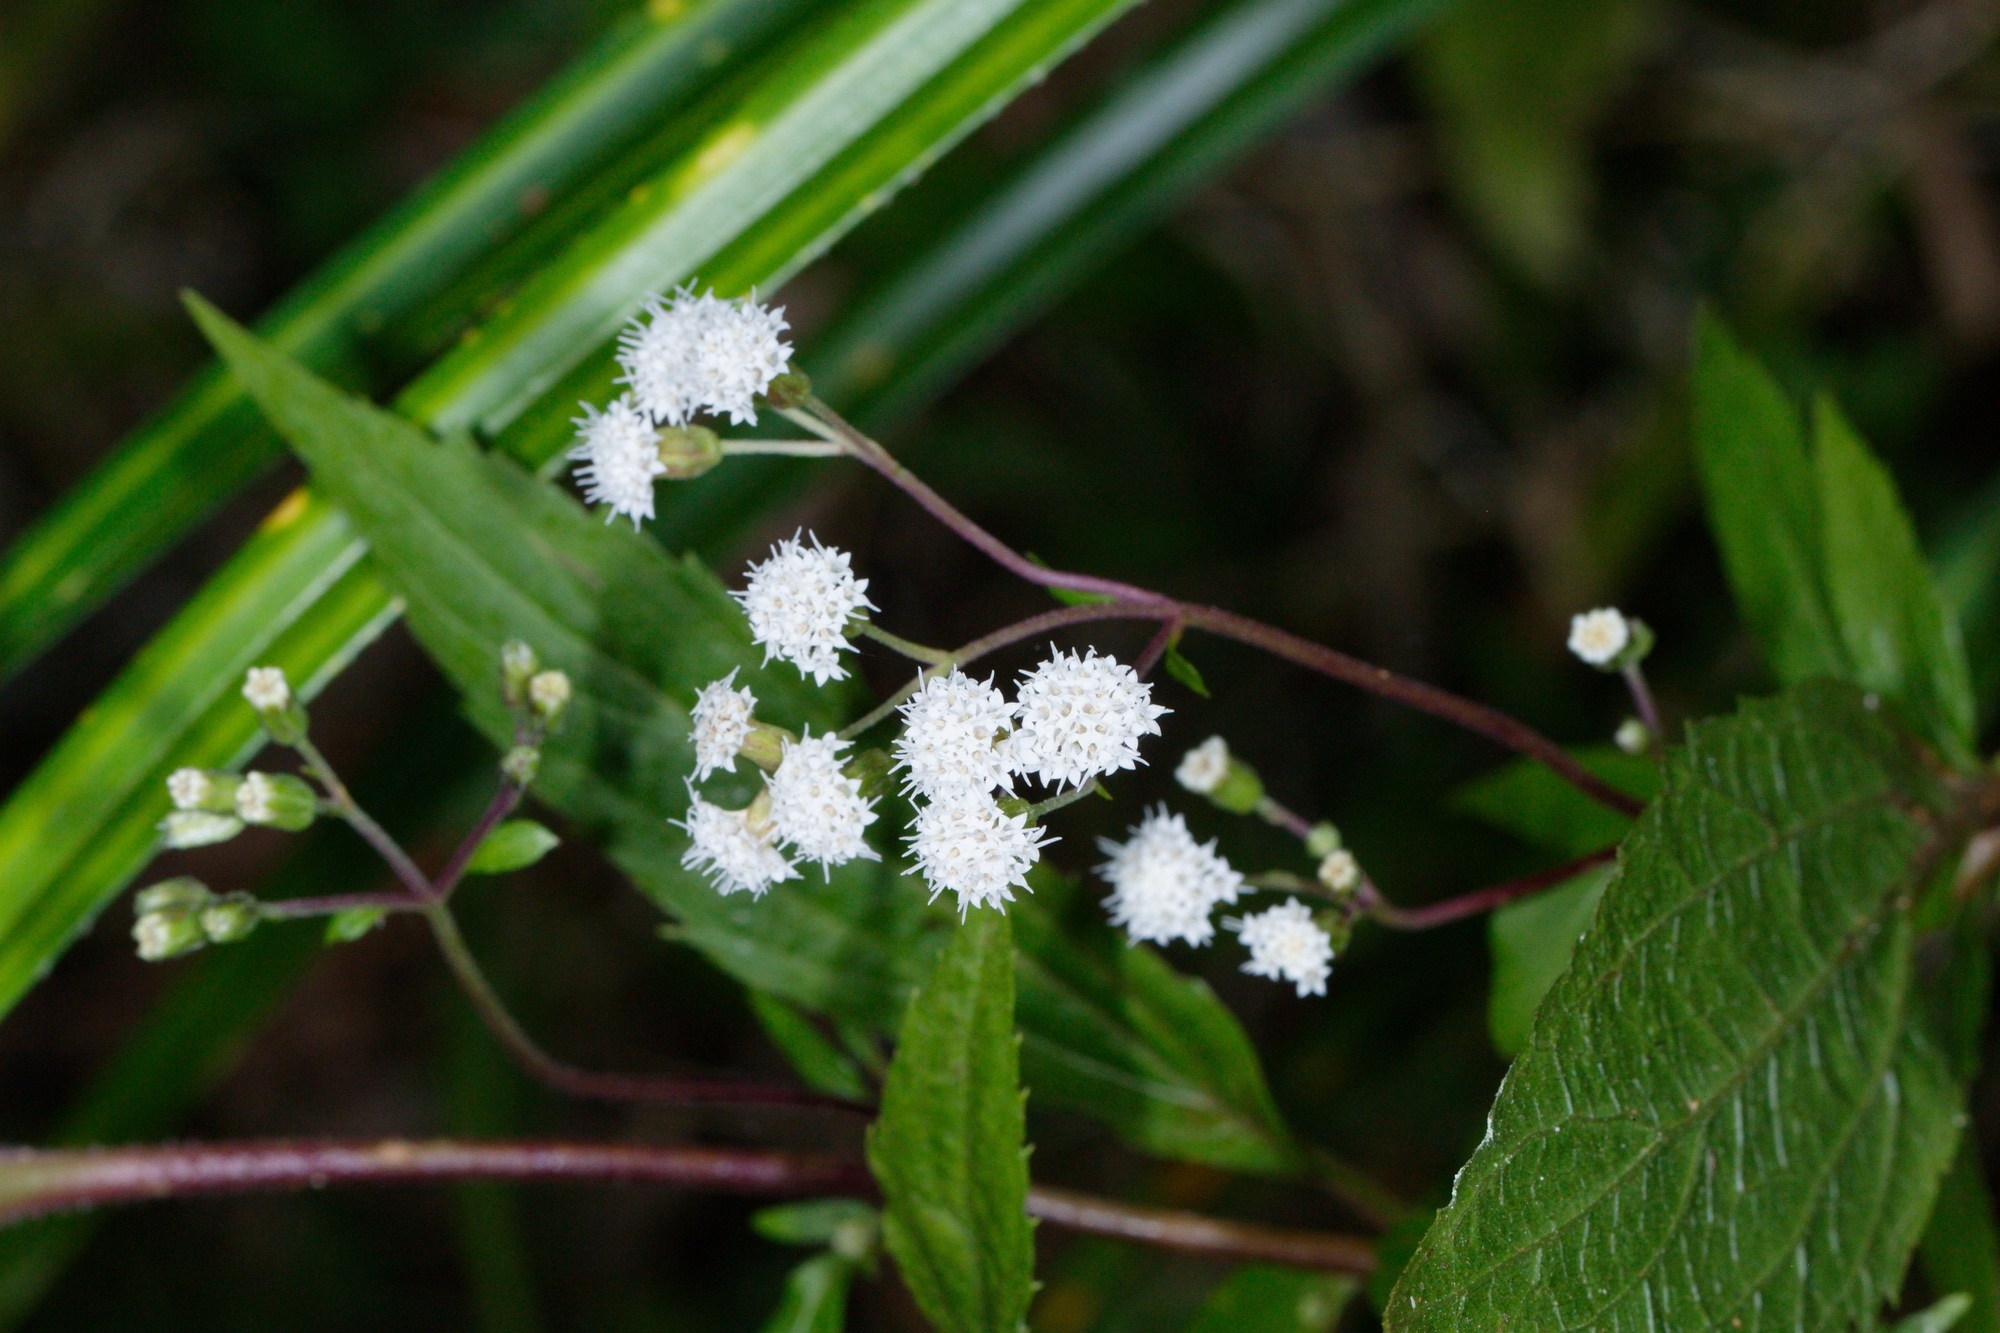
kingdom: Plantae
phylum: Tracheophyta
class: Magnoliopsida
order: Asterales
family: Asteraceae
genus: Ageratina
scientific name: Ageratina riparia
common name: Creeping croftonweed
